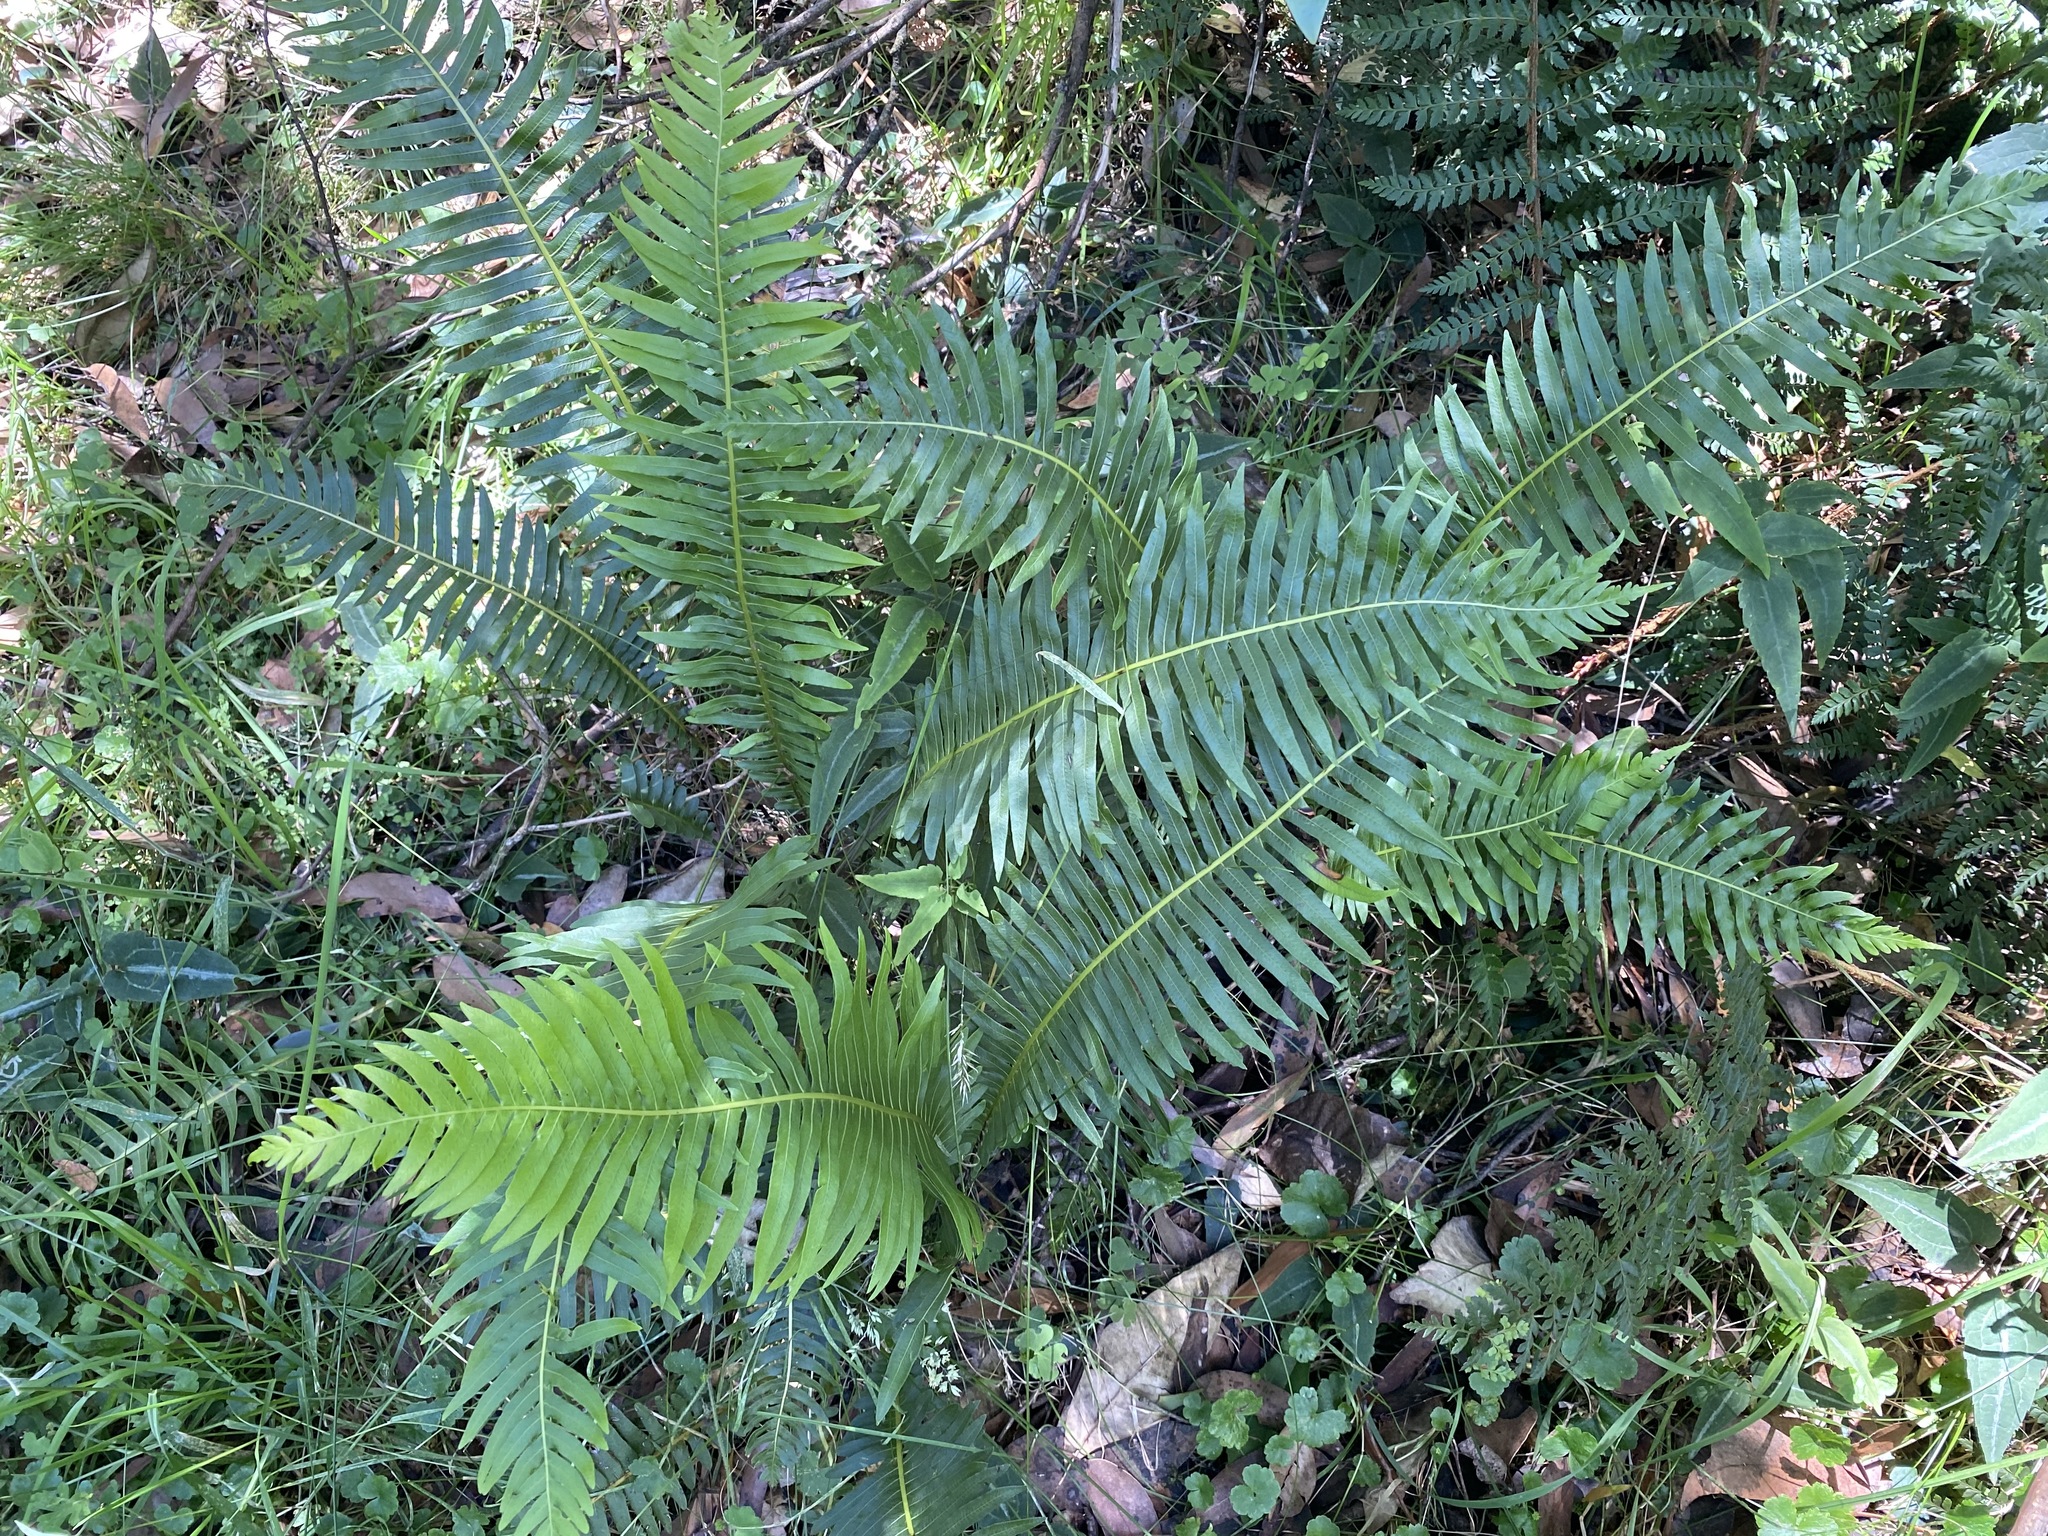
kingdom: Plantae
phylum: Tracheophyta
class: Polypodiopsida
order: Polypodiales
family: Blechnaceae
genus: Lomaria
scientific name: Lomaria nuda
